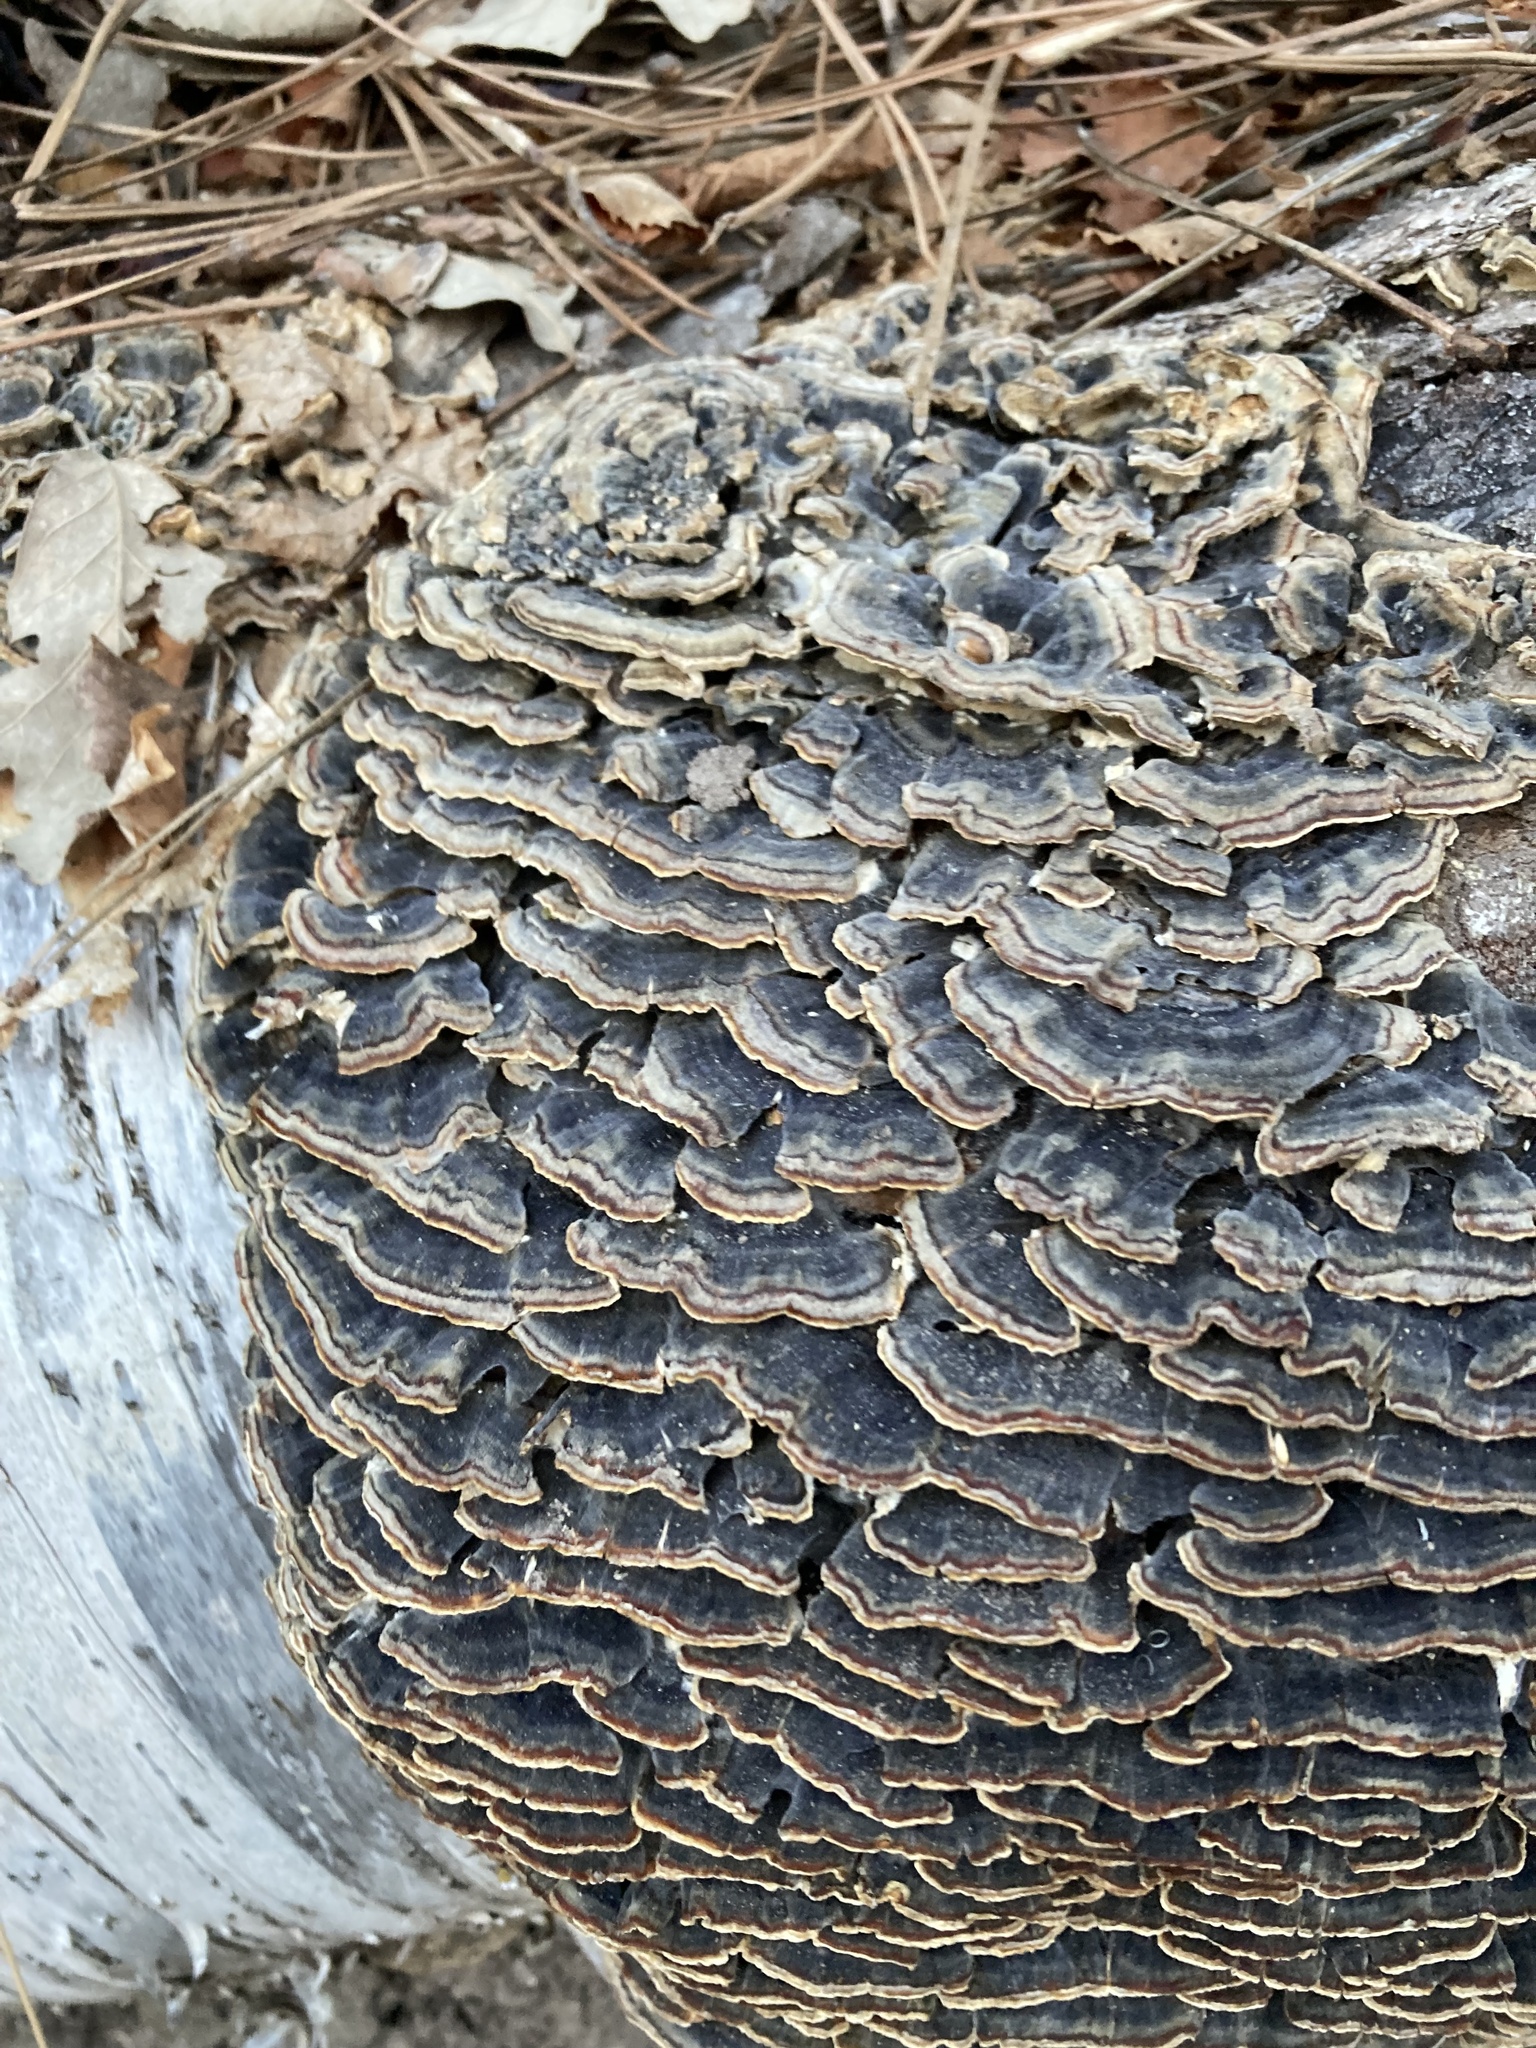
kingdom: Fungi
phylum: Basidiomycota
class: Agaricomycetes
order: Polyporales
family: Polyporaceae
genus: Trametes
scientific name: Trametes versicolor
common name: Turkeytail
